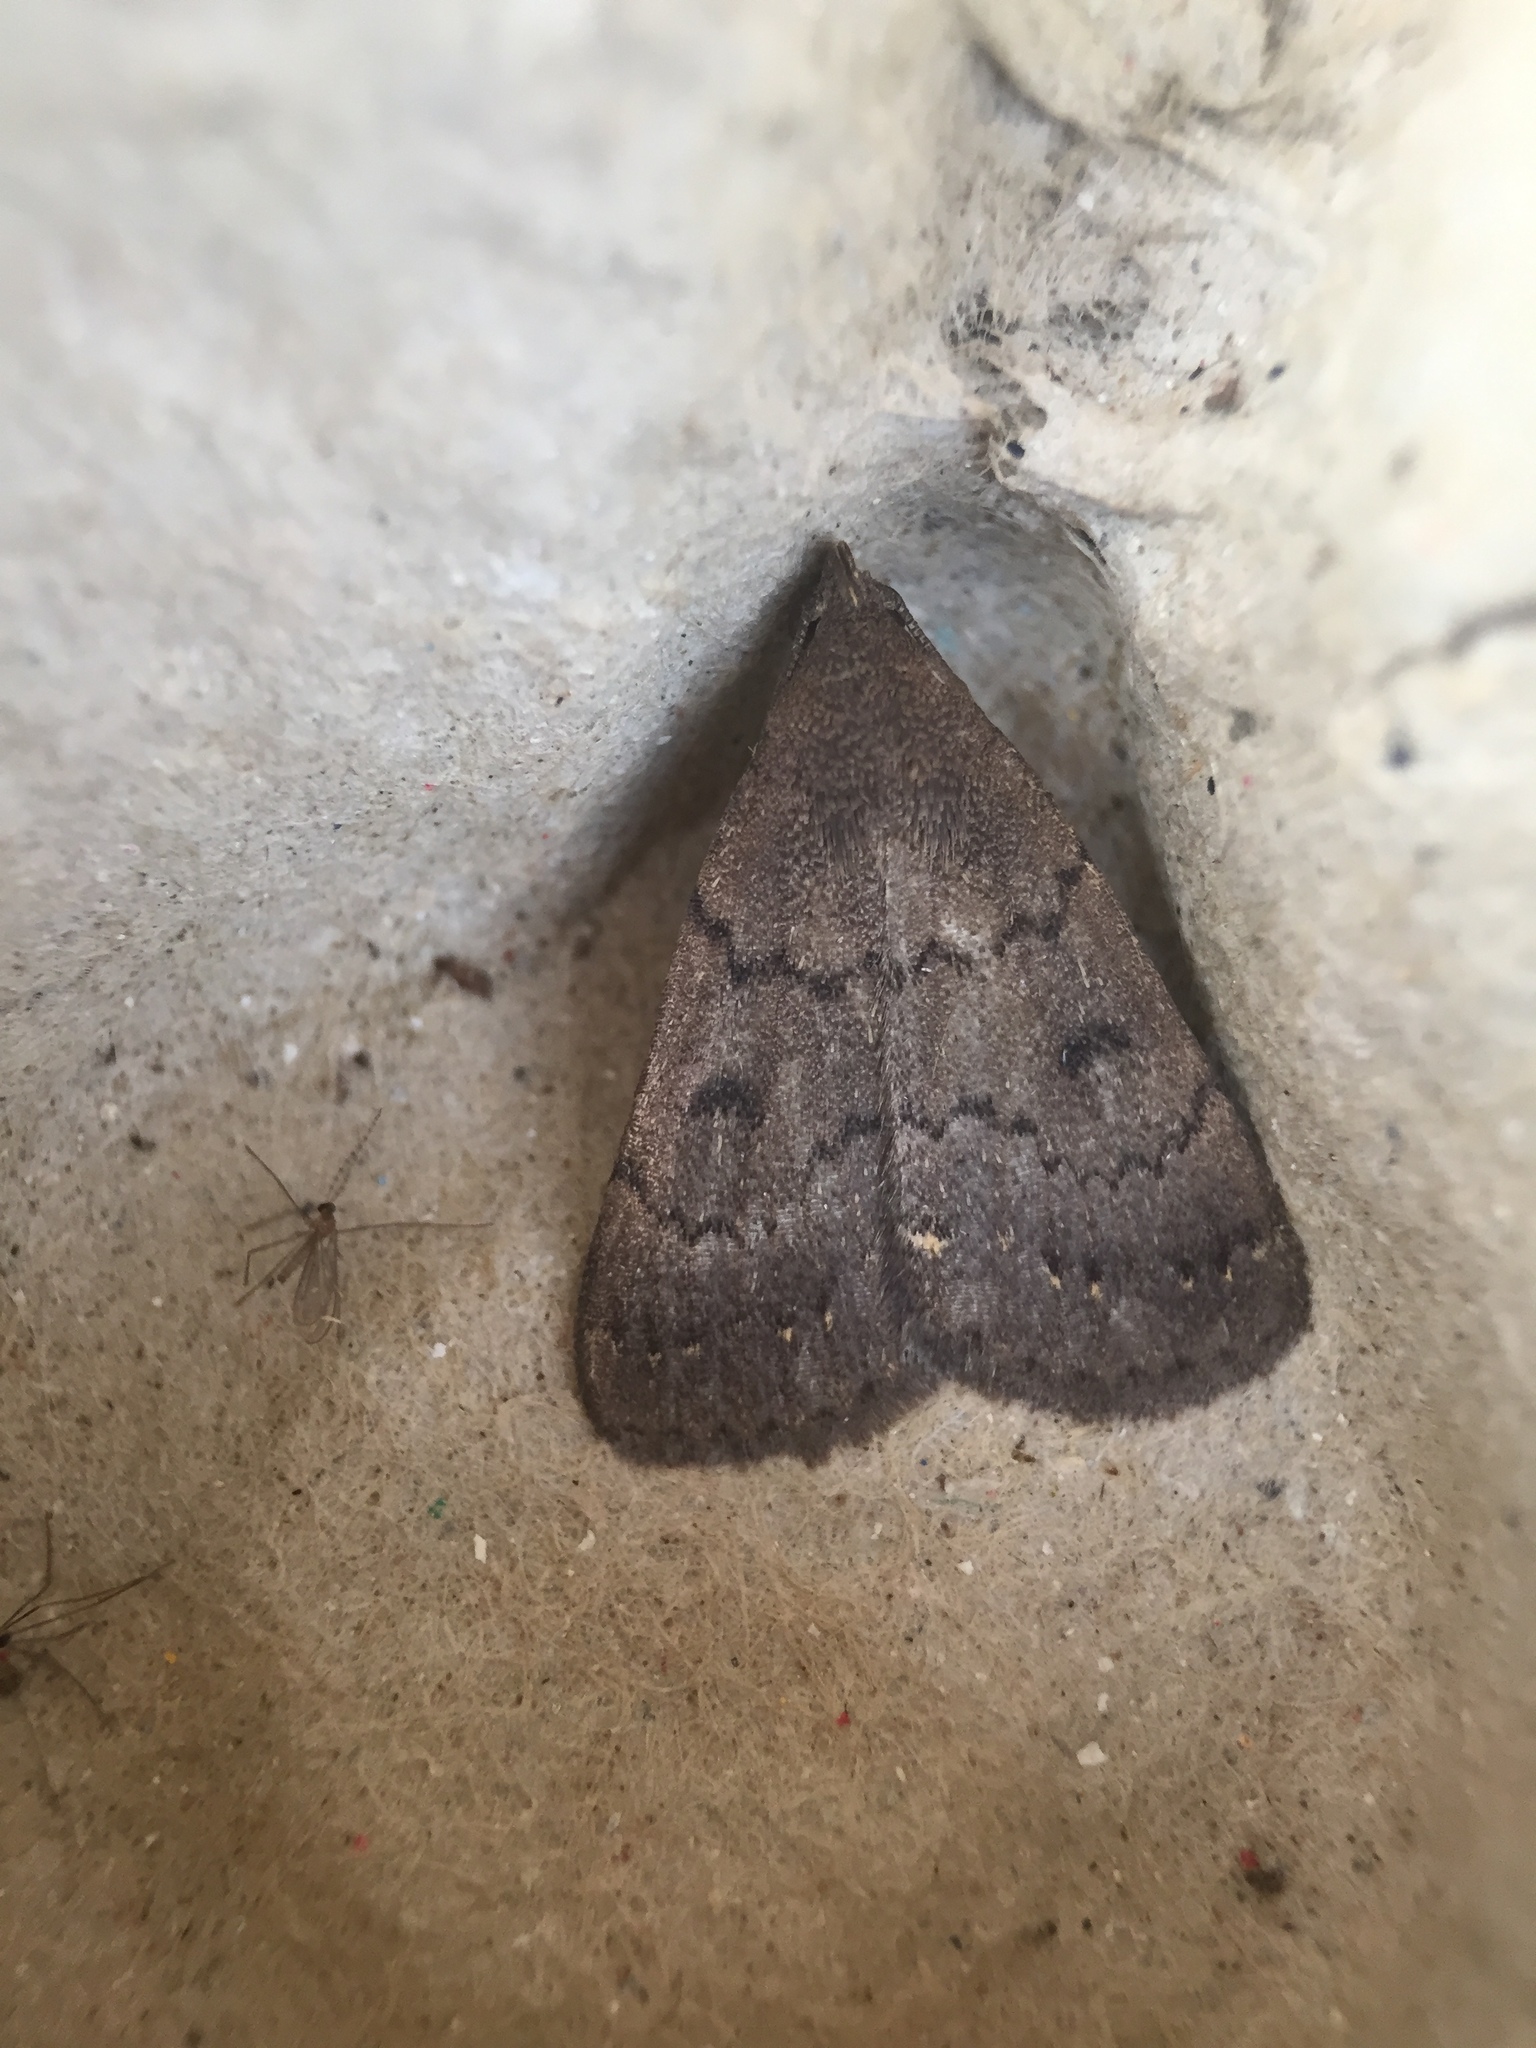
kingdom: Animalia
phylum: Arthropoda
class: Insecta
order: Lepidoptera
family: Erebidae
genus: Nodaria
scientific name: Nodaria nodosalis
